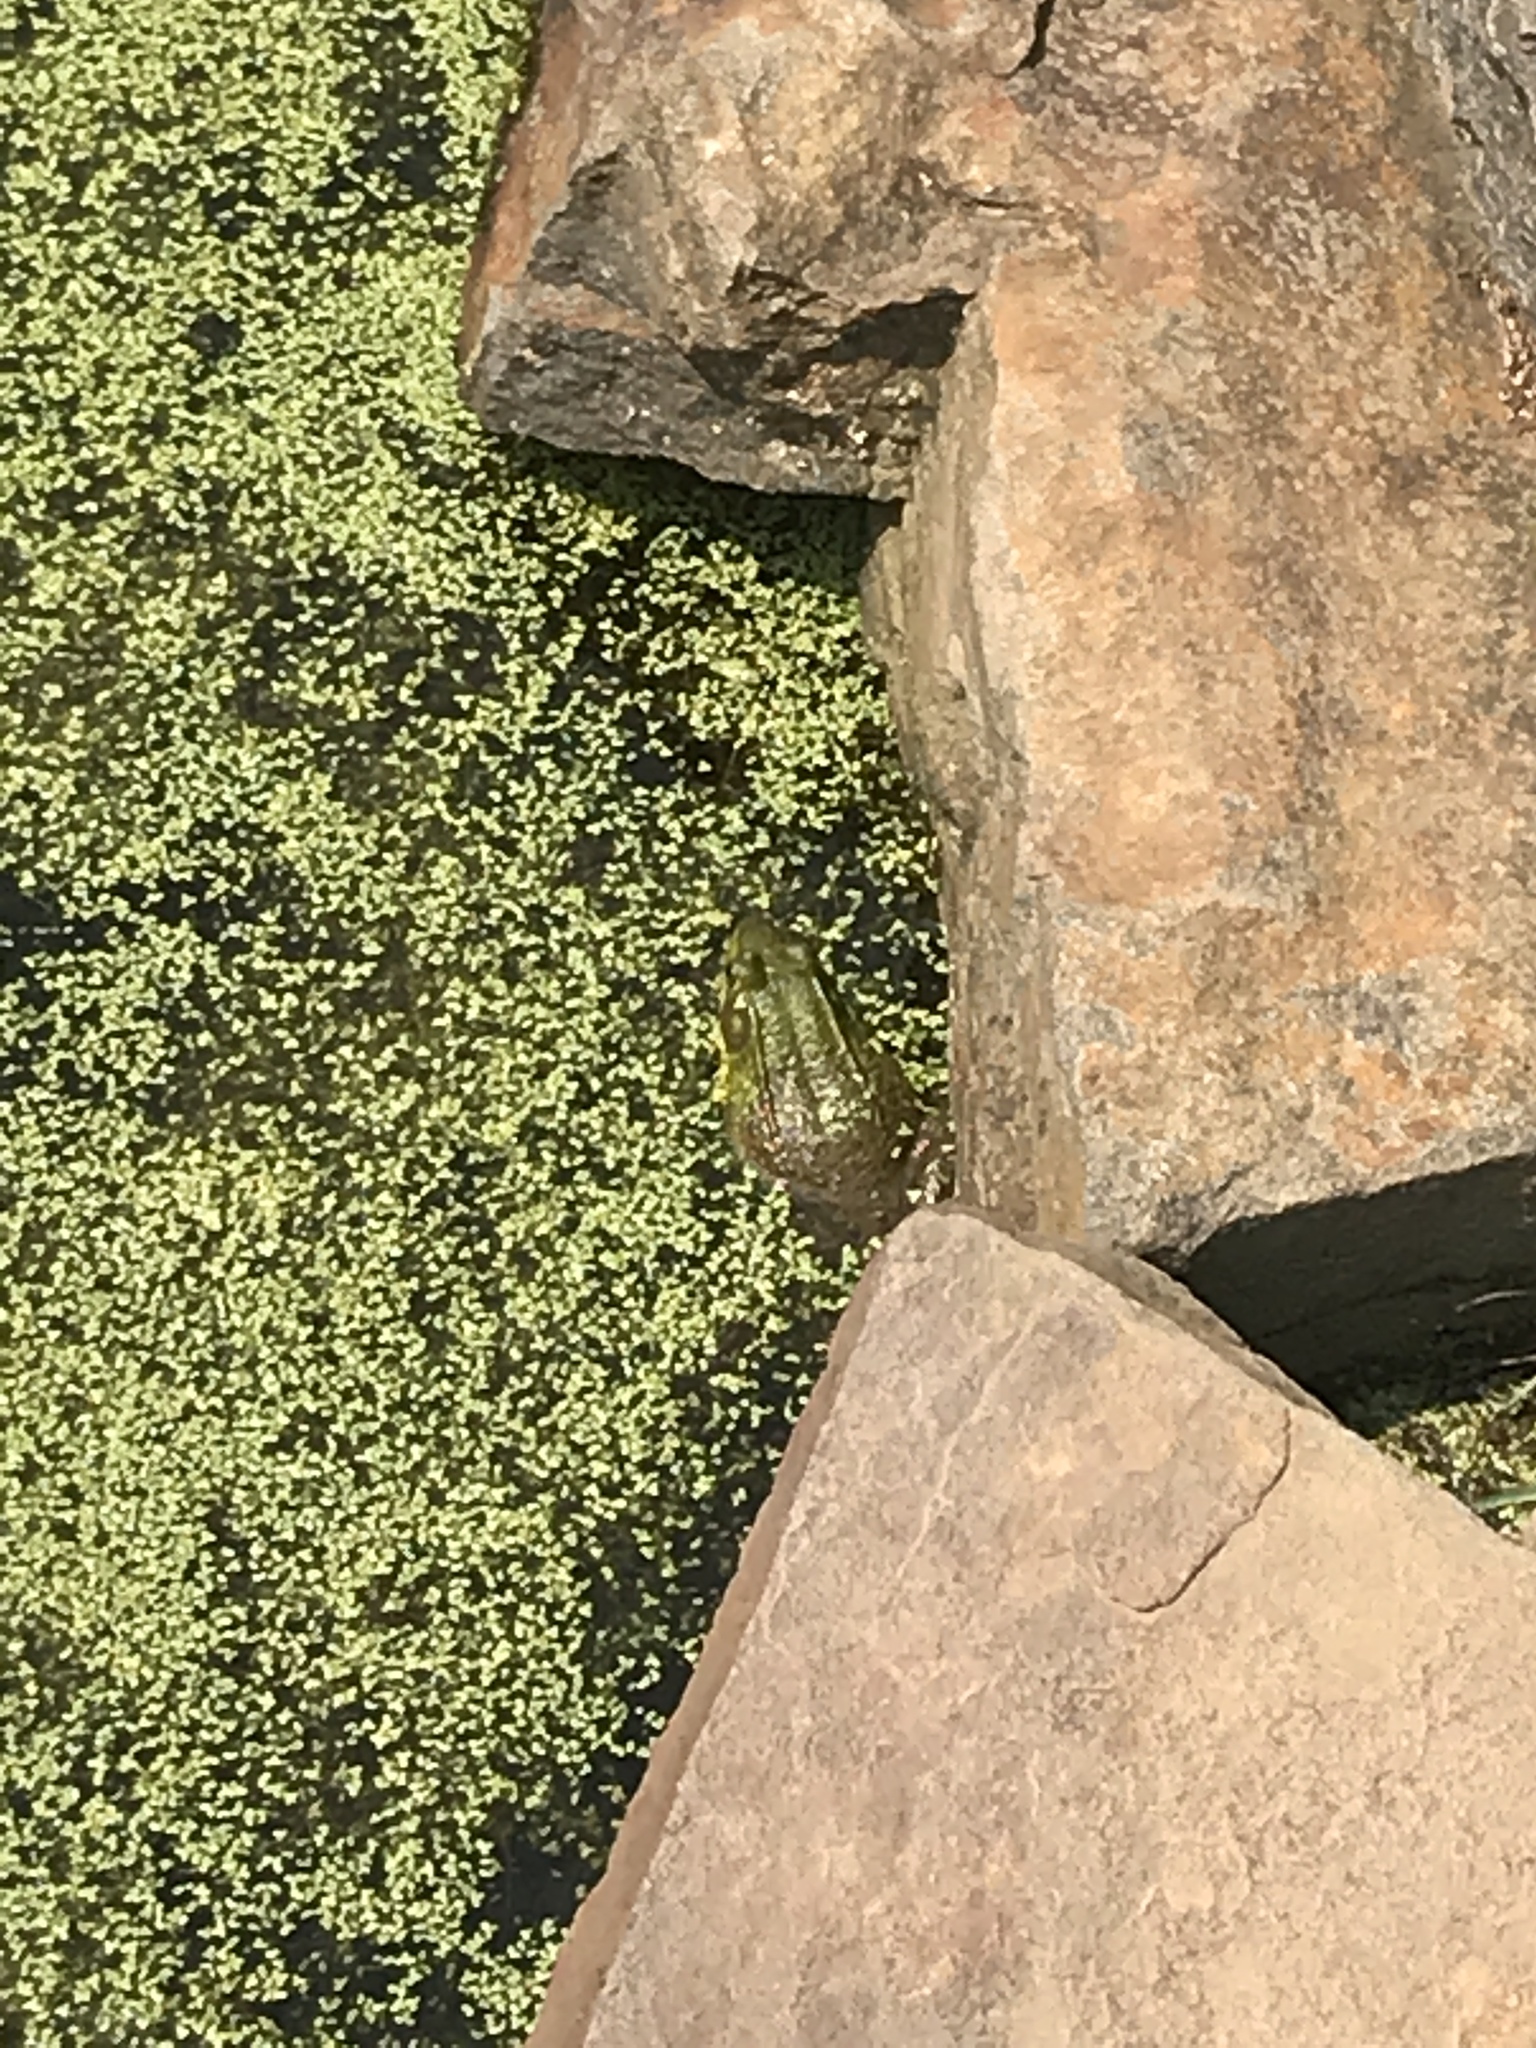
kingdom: Animalia
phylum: Chordata
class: Amphibia
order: Anura
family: Ranidae
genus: Lithobates
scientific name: Lithobates clamitans
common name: Green frog
